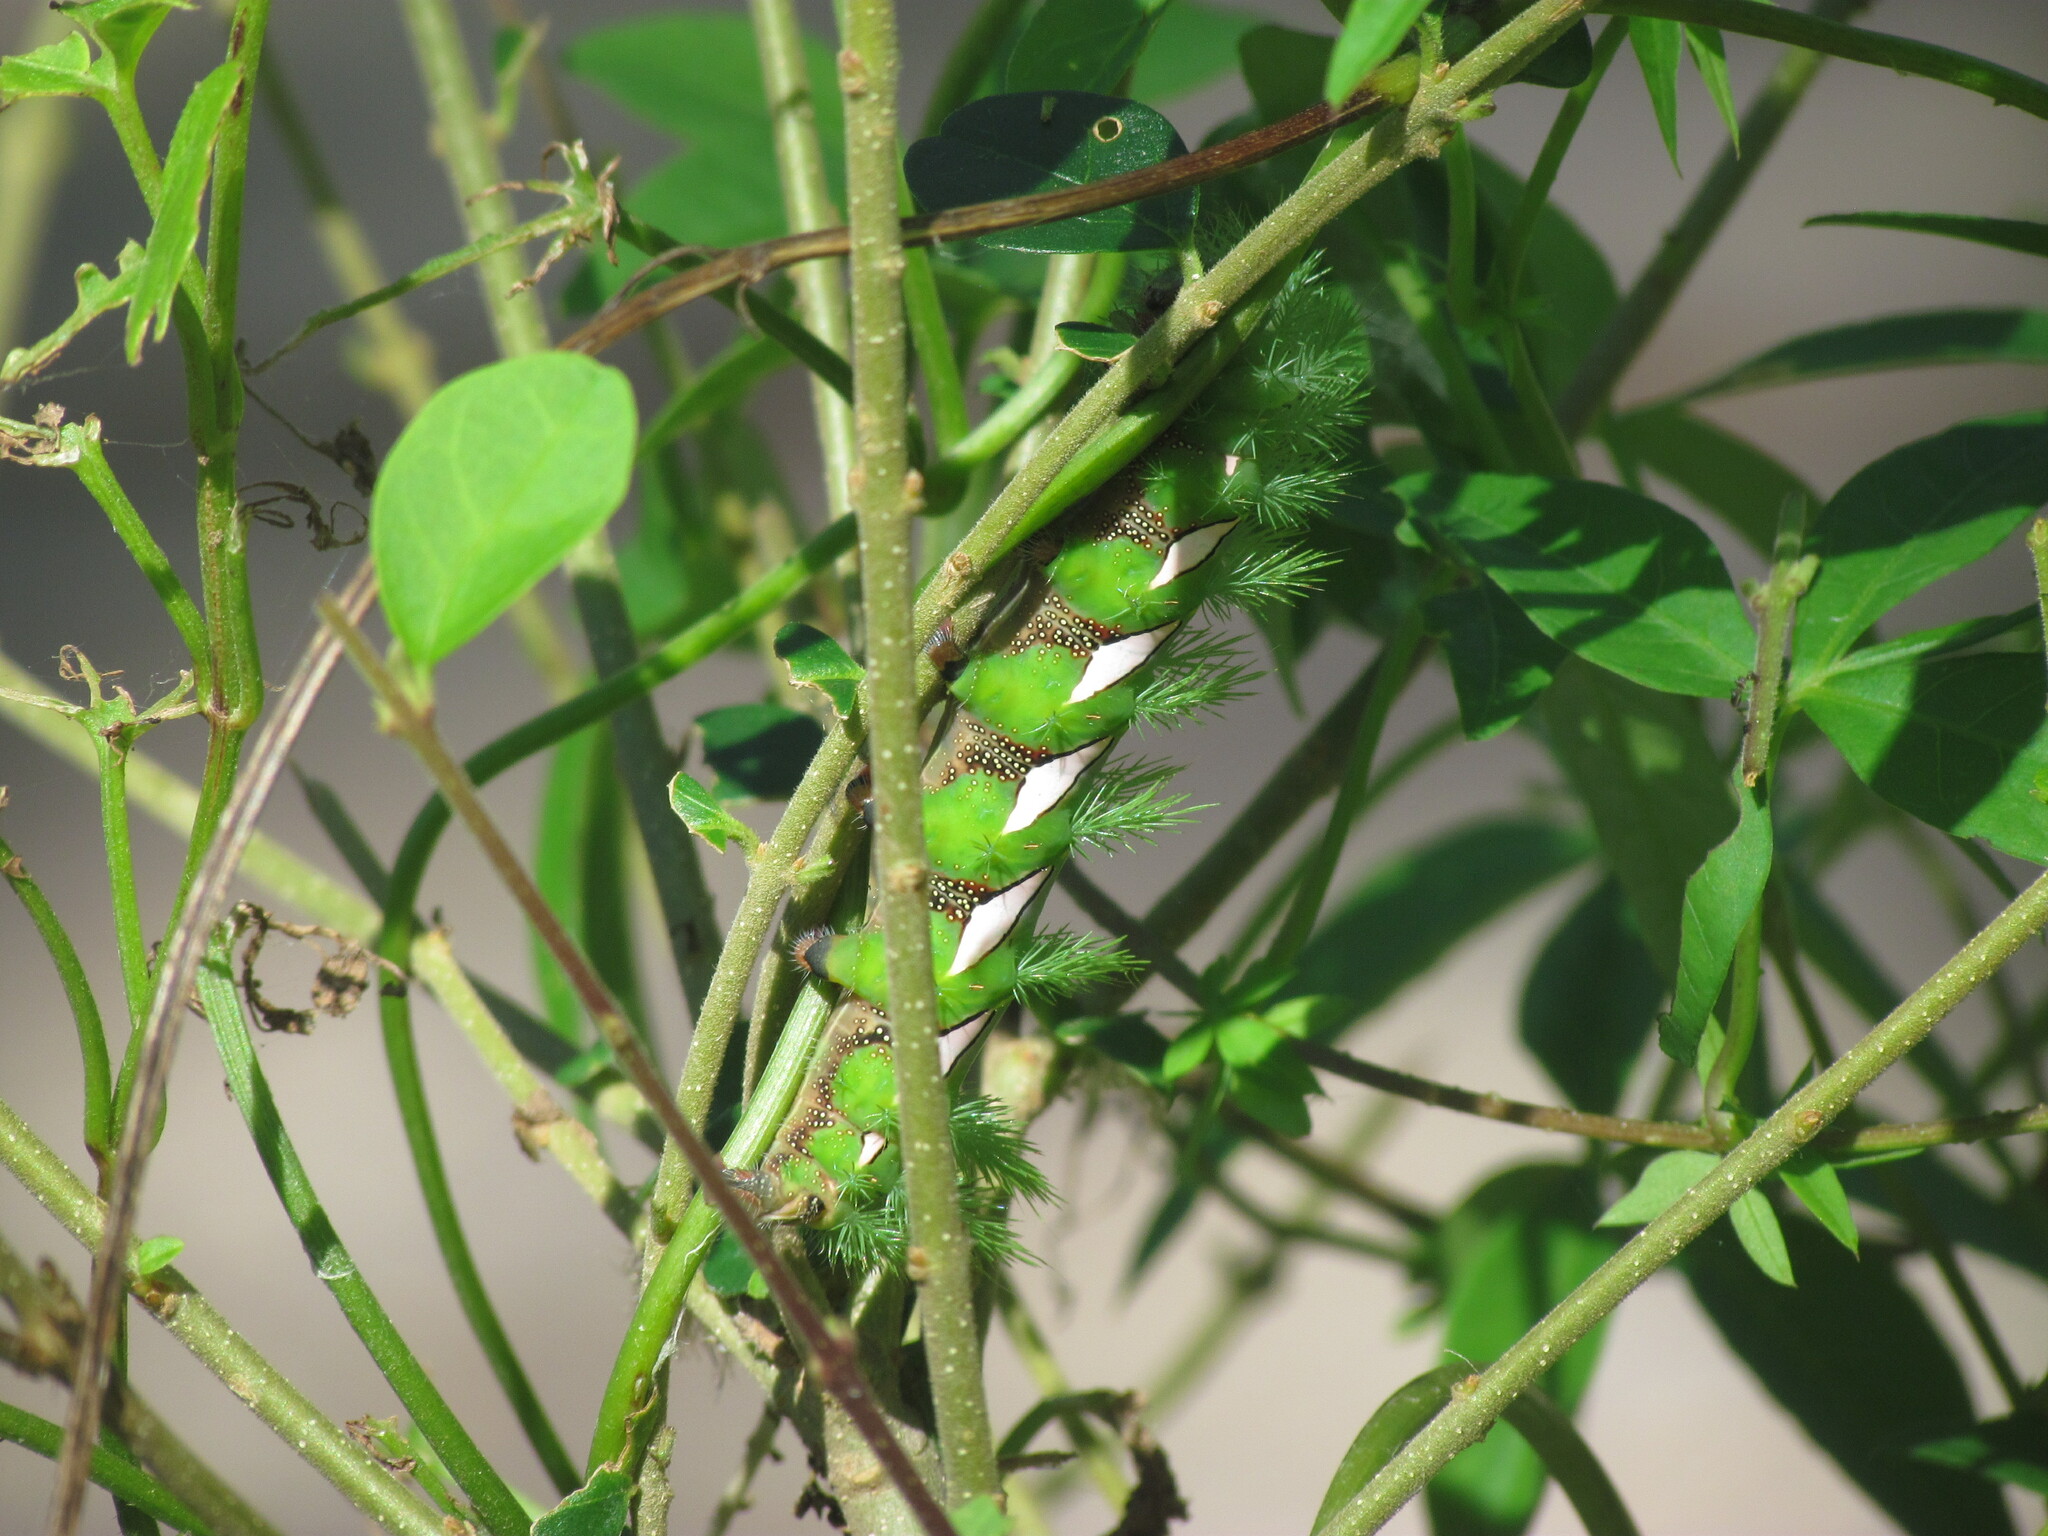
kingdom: Animalia
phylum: Arthropoda
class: Insecta
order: Lepidoptera
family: Saturniidae
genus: Automeris
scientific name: Automeris naranja
